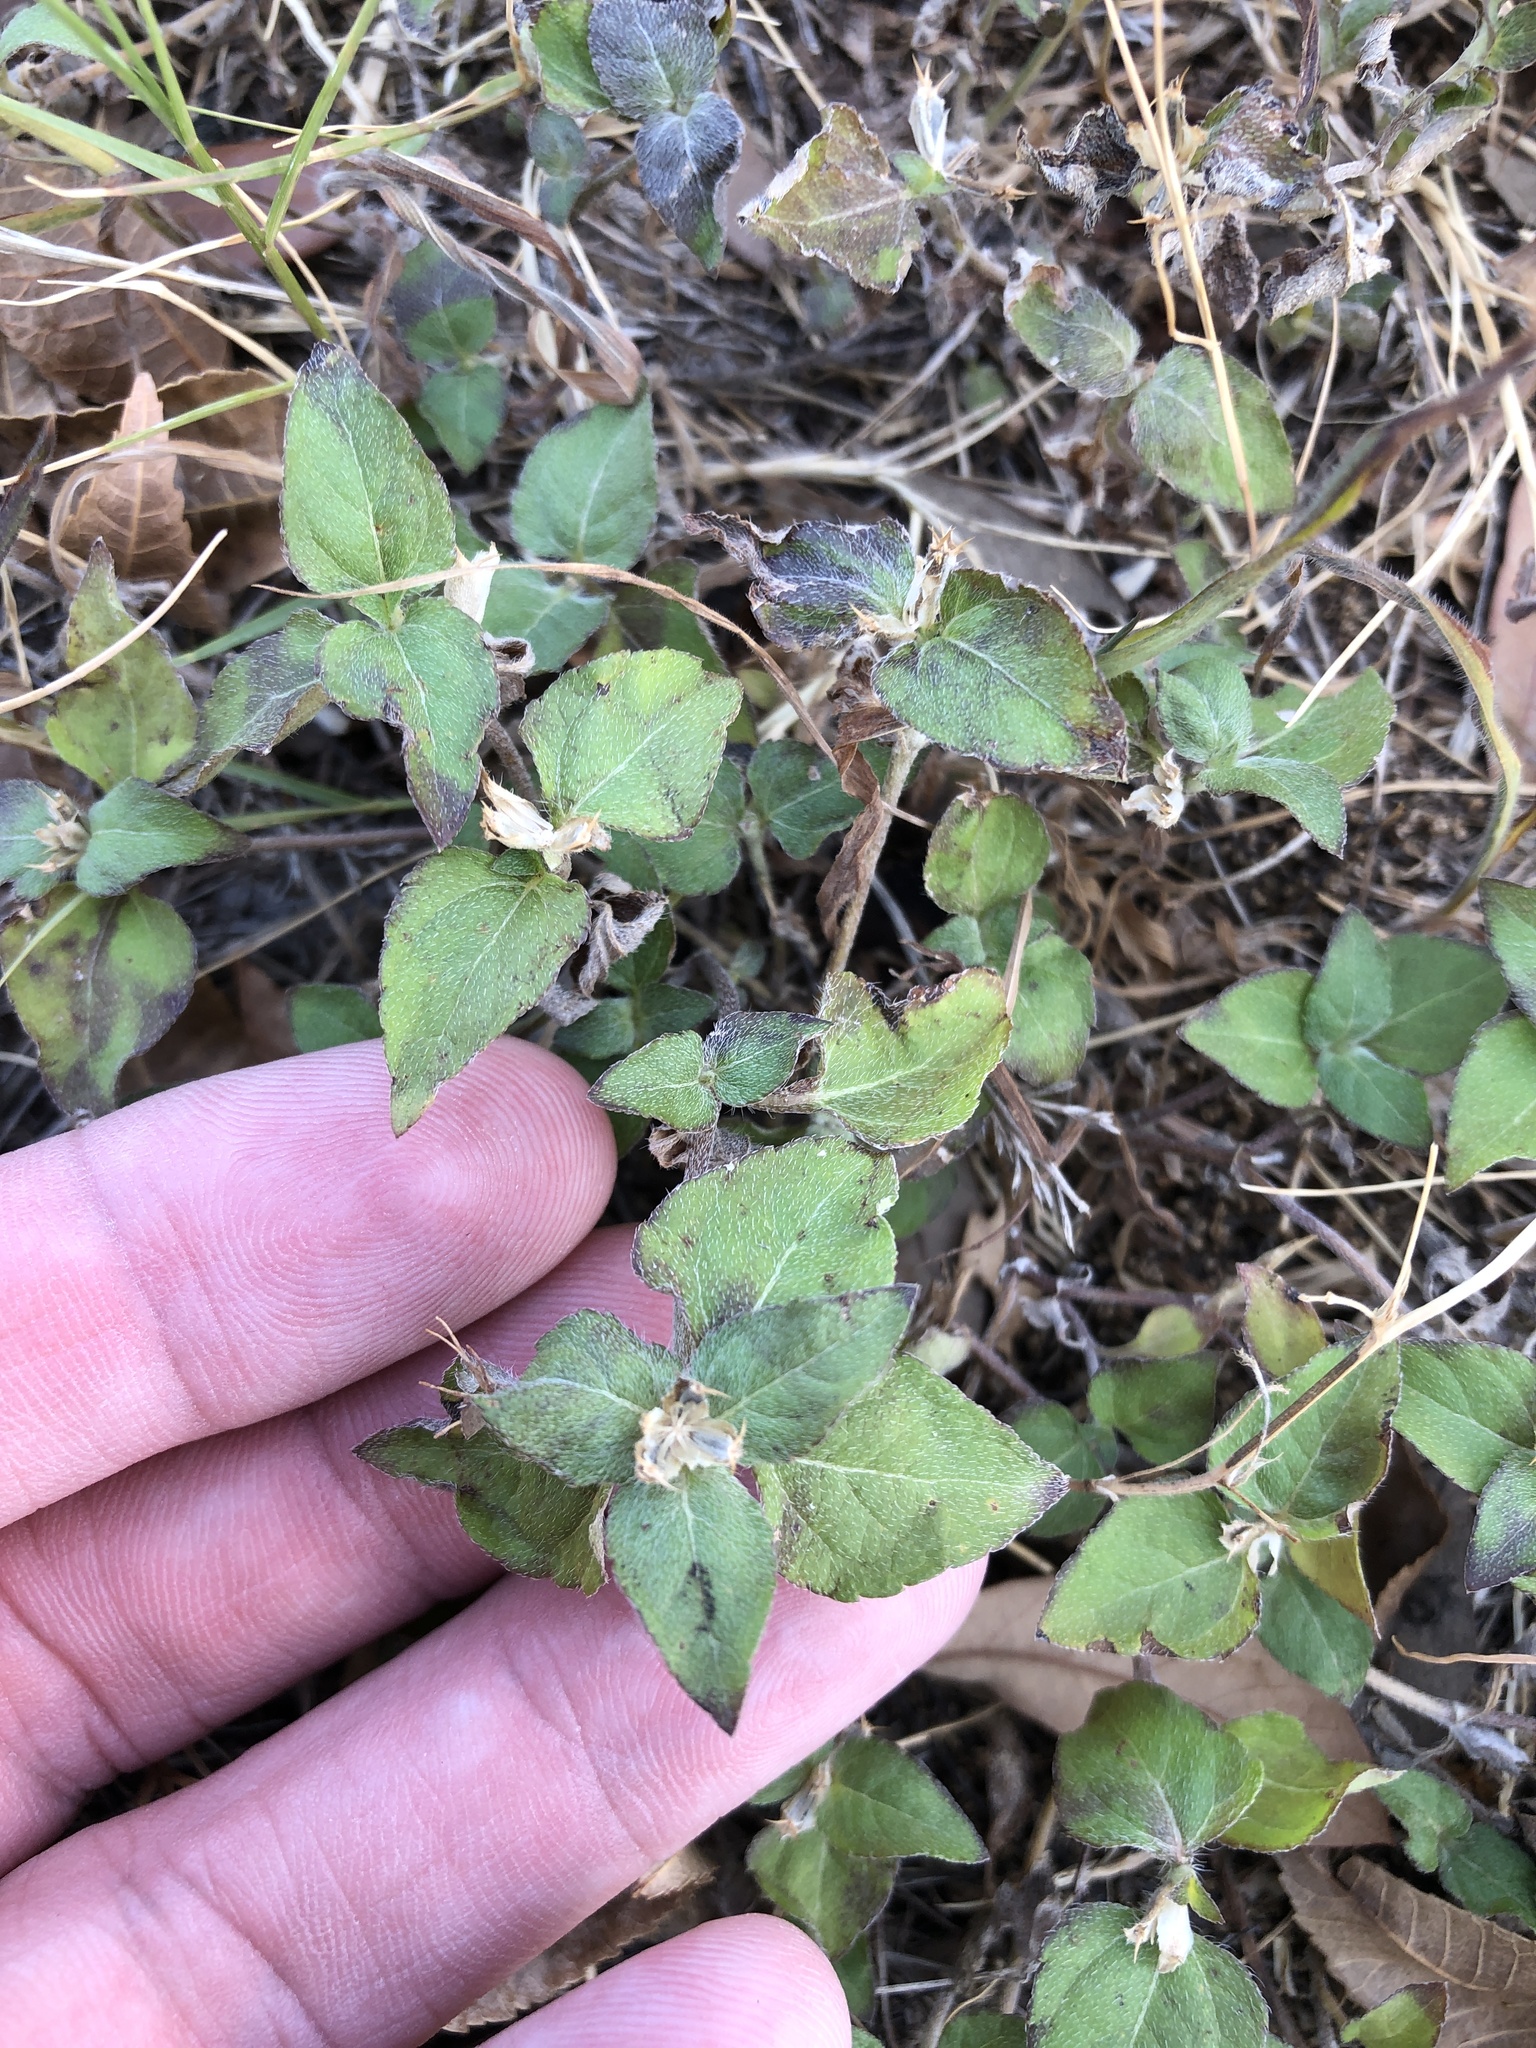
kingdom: Plantae
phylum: Tracheophyta
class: Magnoliopsida
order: Asterales
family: Asteraceae
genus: Calyptocarpus
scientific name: Calyptocarpus vialis
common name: Straggler daisy
